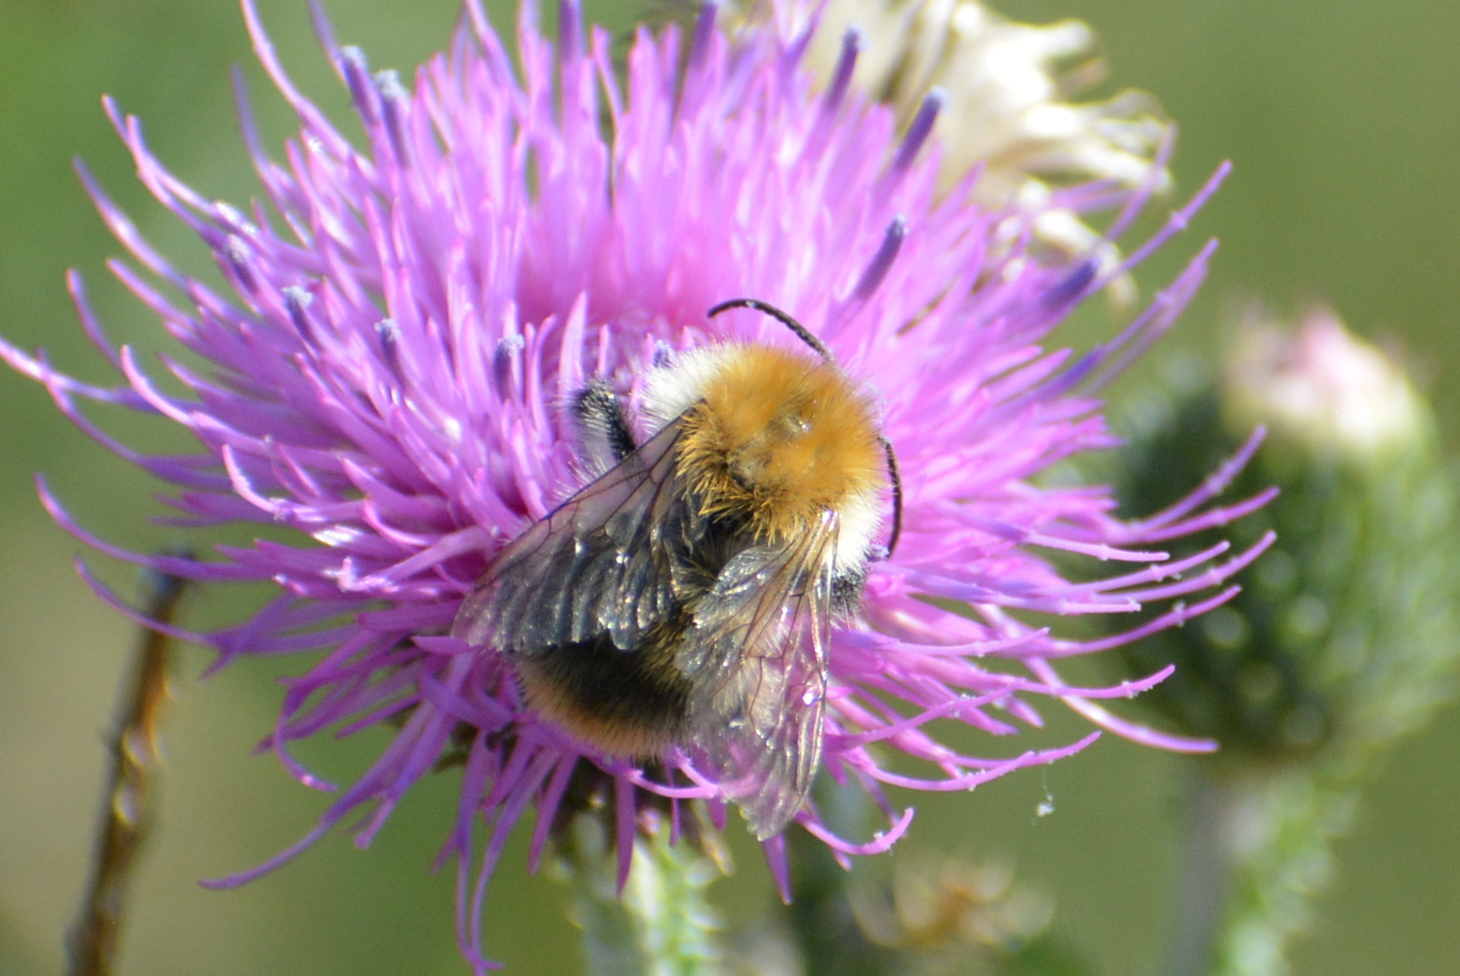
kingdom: Animalia
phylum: Arthropoda
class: Insecta
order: Hymenoptera
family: Apidae
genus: Bombus
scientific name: Bombus pascuorum
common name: Common carder bee
